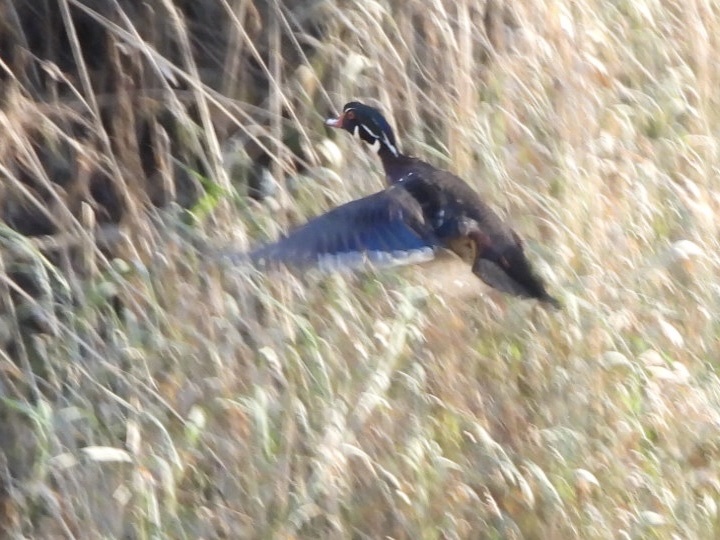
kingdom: Animalia
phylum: Chordata
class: Aves
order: Anseriformes
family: Anatidae
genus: Aix
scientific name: Aix sponsa
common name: Wood duck
